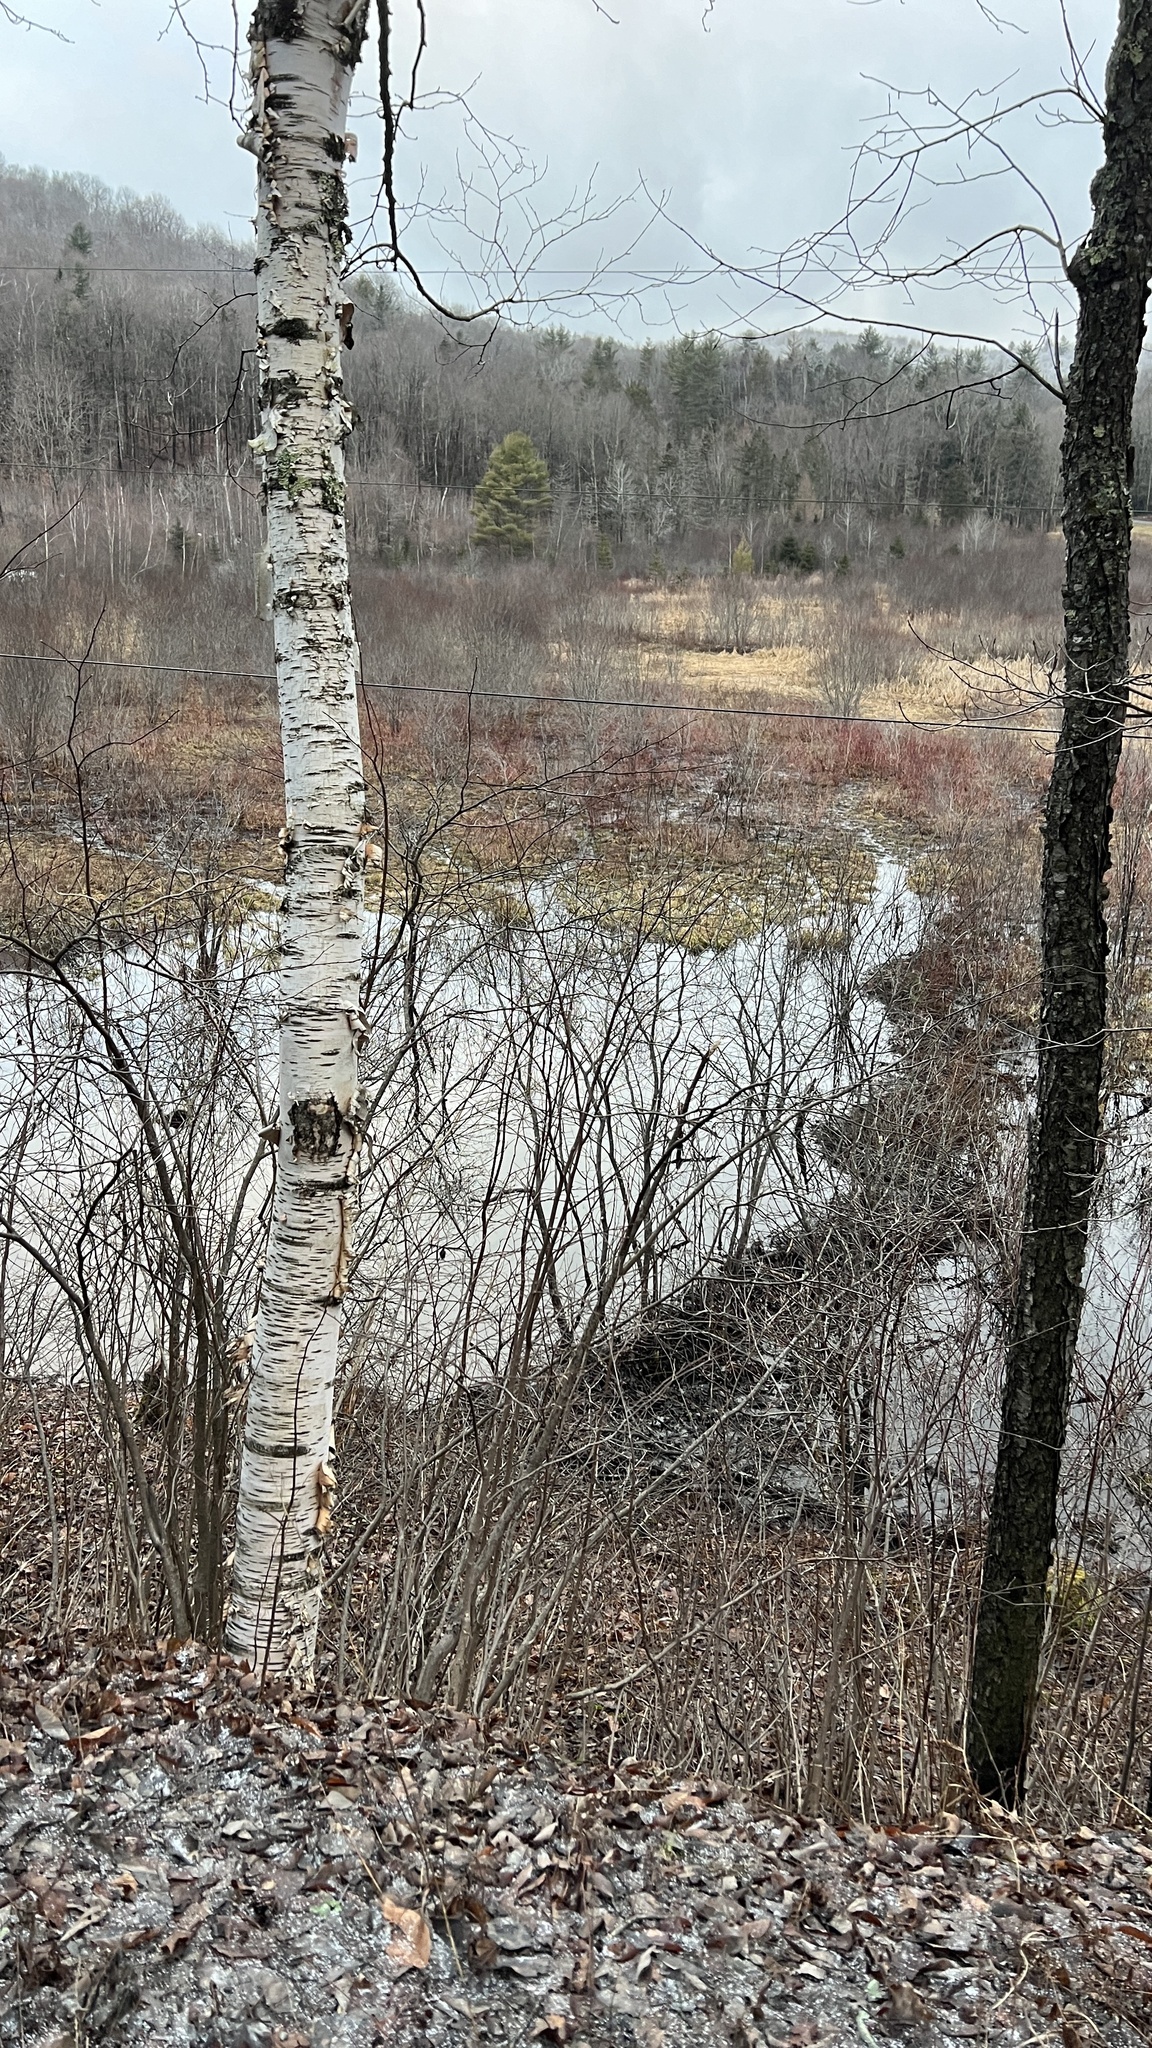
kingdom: Plantae
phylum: Tracheophyta
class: Magnoliopsida
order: Fagales
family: Betulaceae
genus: Betula
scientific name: Betula papyrifera
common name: Paper birch
